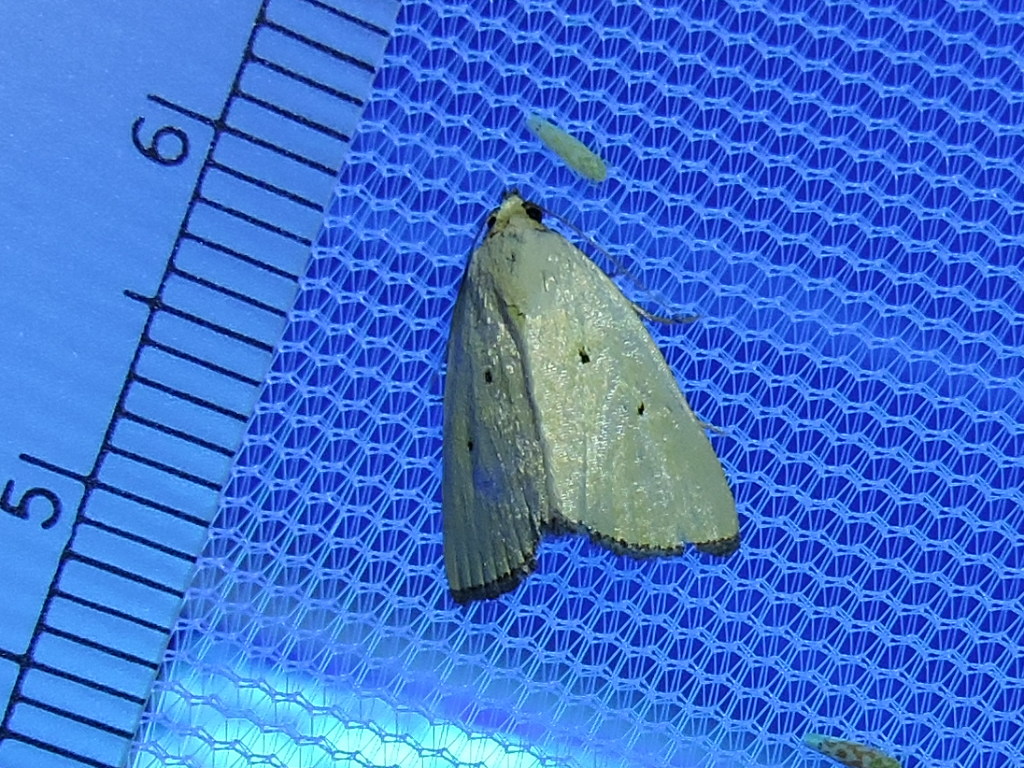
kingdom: Animalia
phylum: Arthropoda
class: Insecta
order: Lepidoptera
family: Noctuidae
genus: Marimatha
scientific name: Marimatha nigrofimbria
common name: Black-bordered lemon moth
